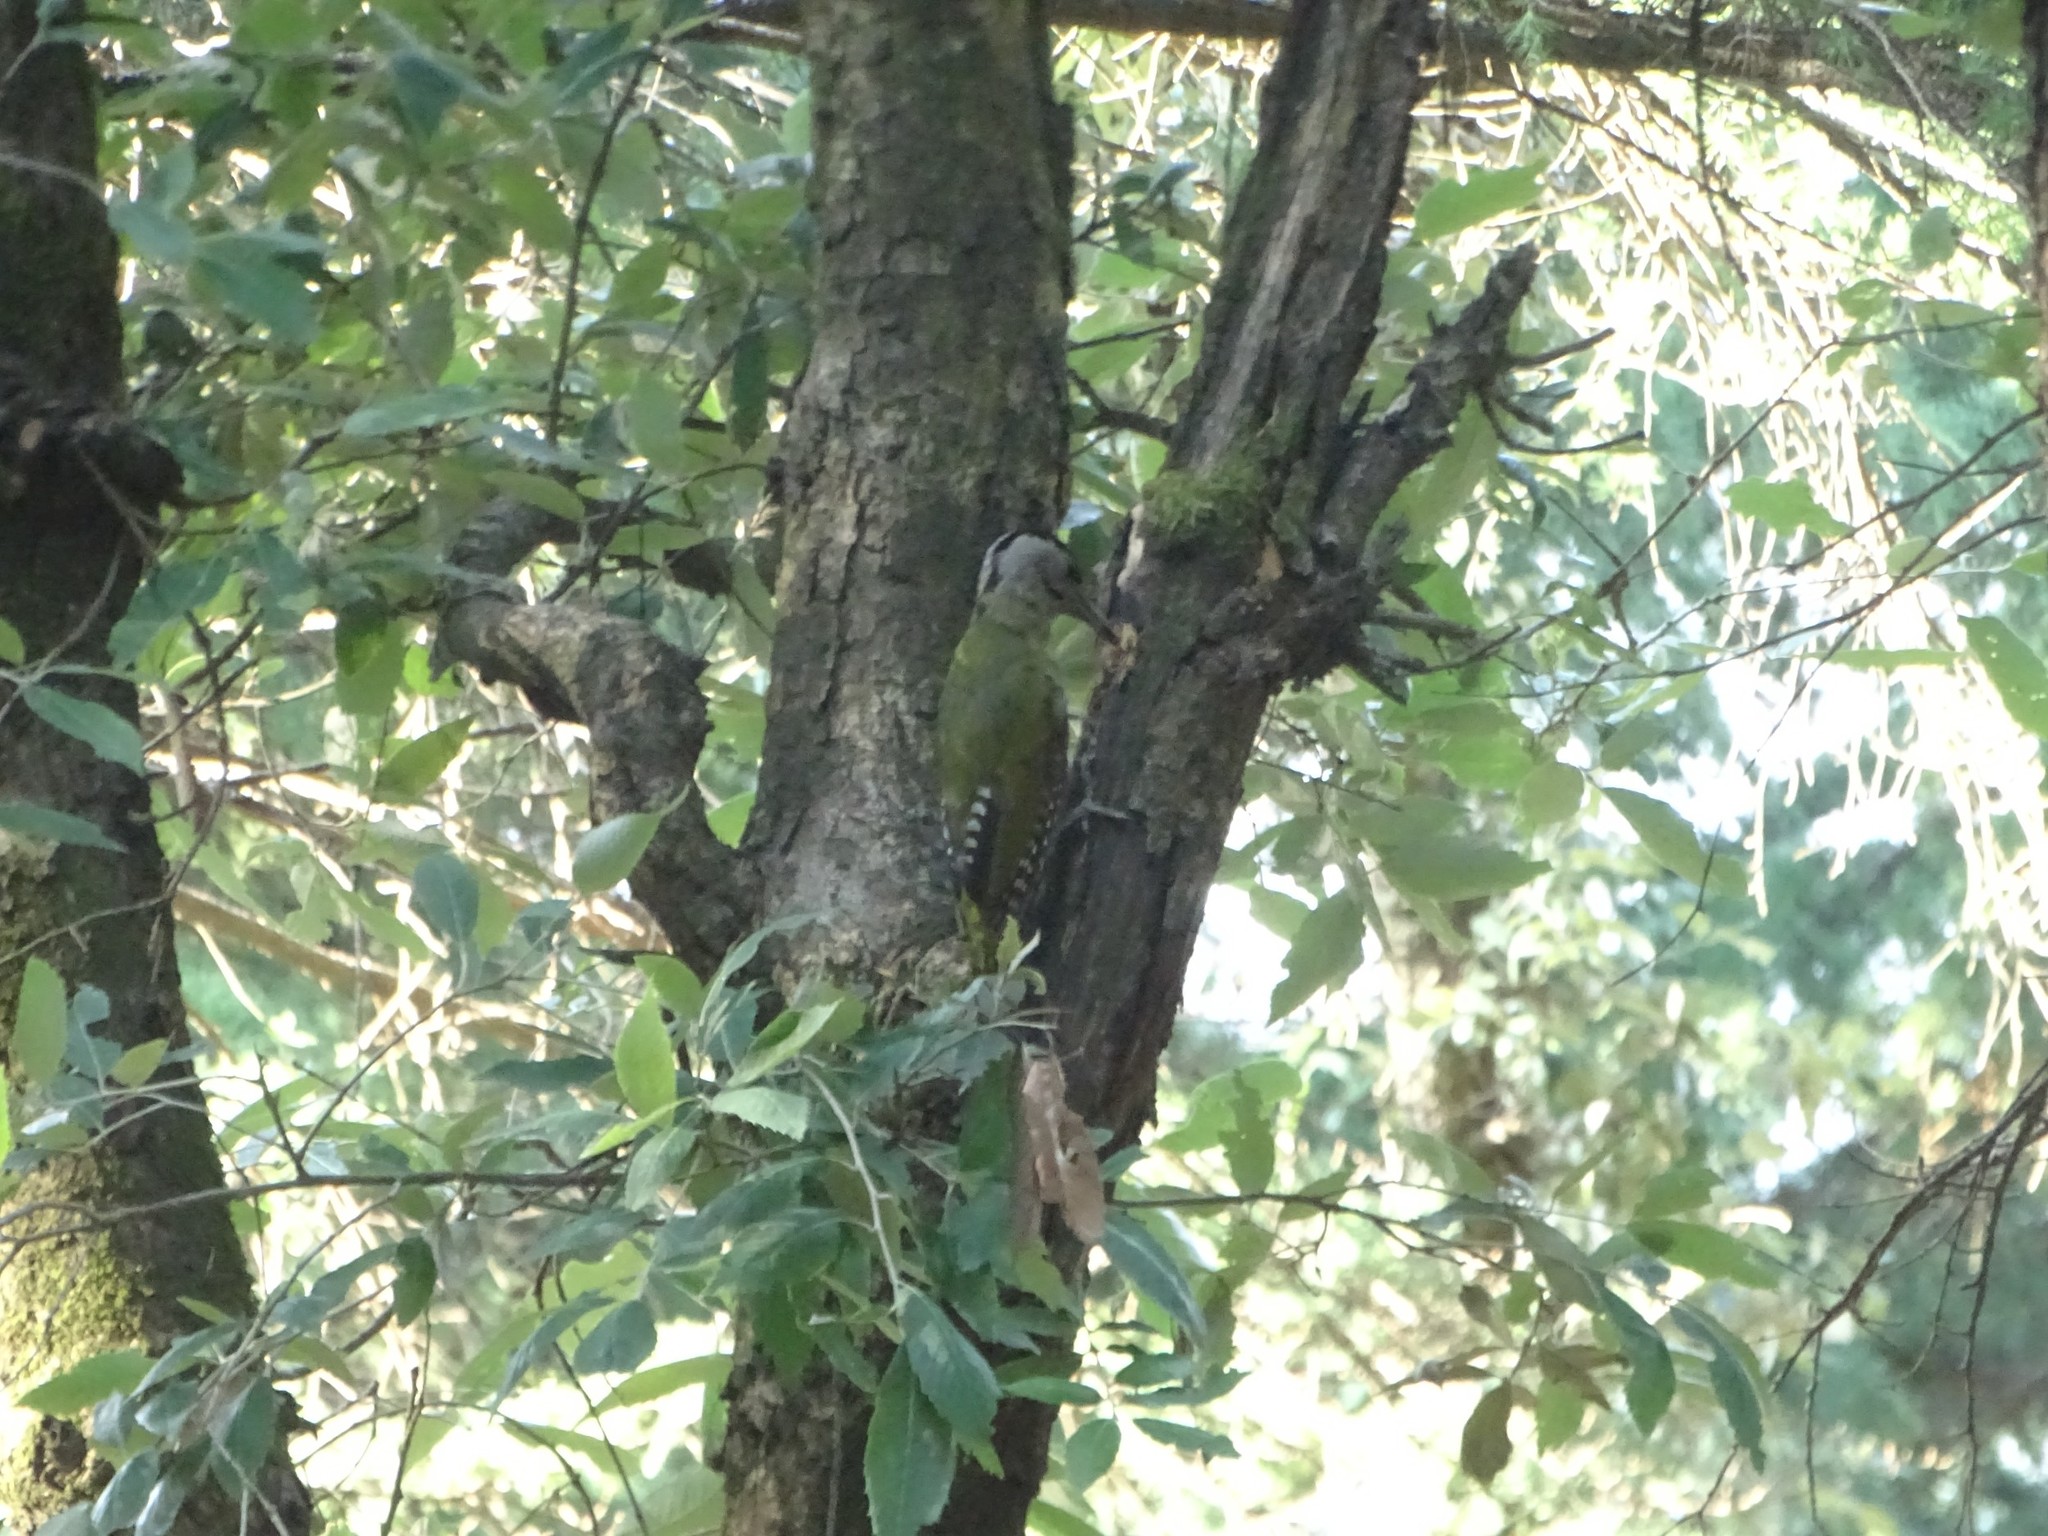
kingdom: Animalia
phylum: Chordata
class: Aves
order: Piciformes
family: Picidae
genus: Picus
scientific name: Picus canus
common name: Grey-headed woodpecker
